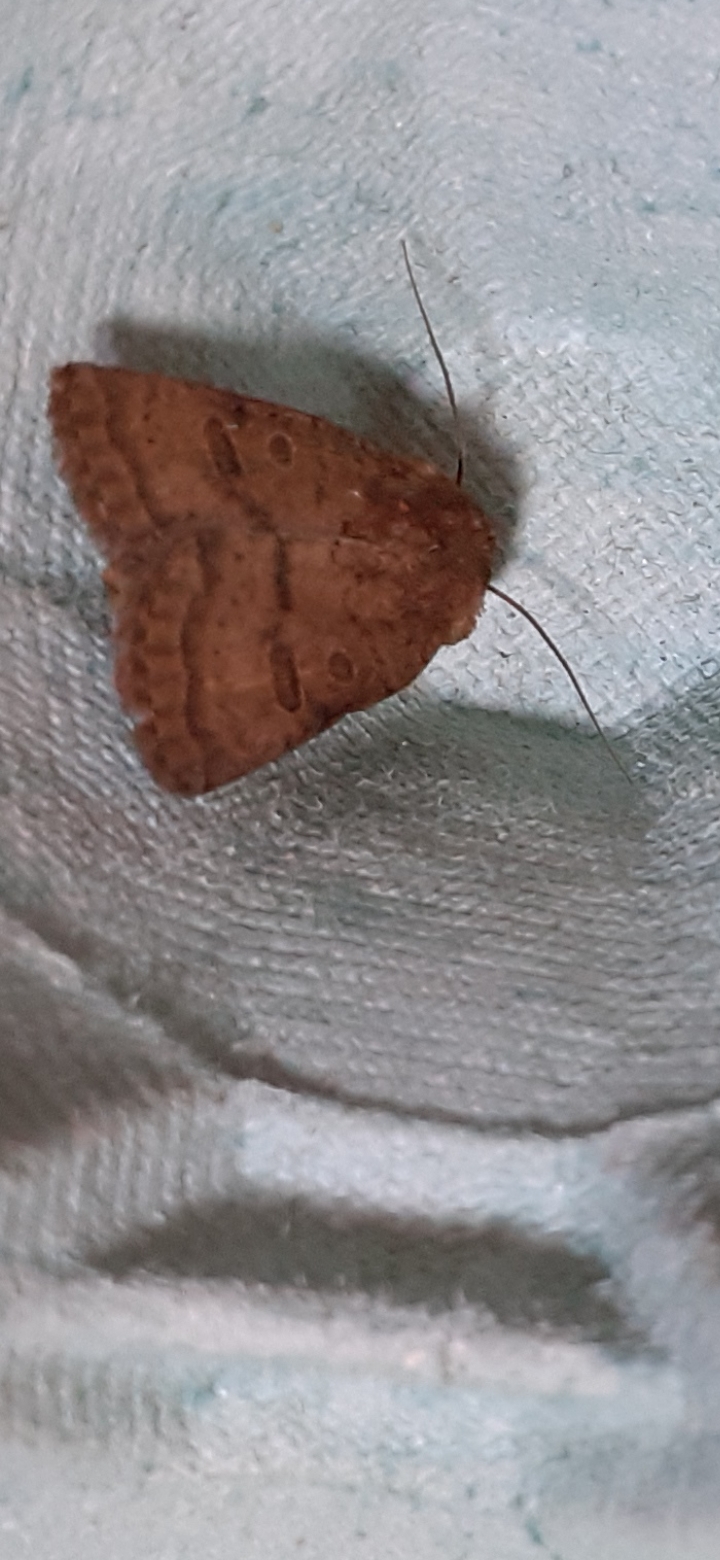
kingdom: Animalia
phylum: Arthropoda
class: Insecta
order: Lepidoptera
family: Noctuidae
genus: Hoplodrina
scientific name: Hoplodrina octogenaria
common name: Uncertain
